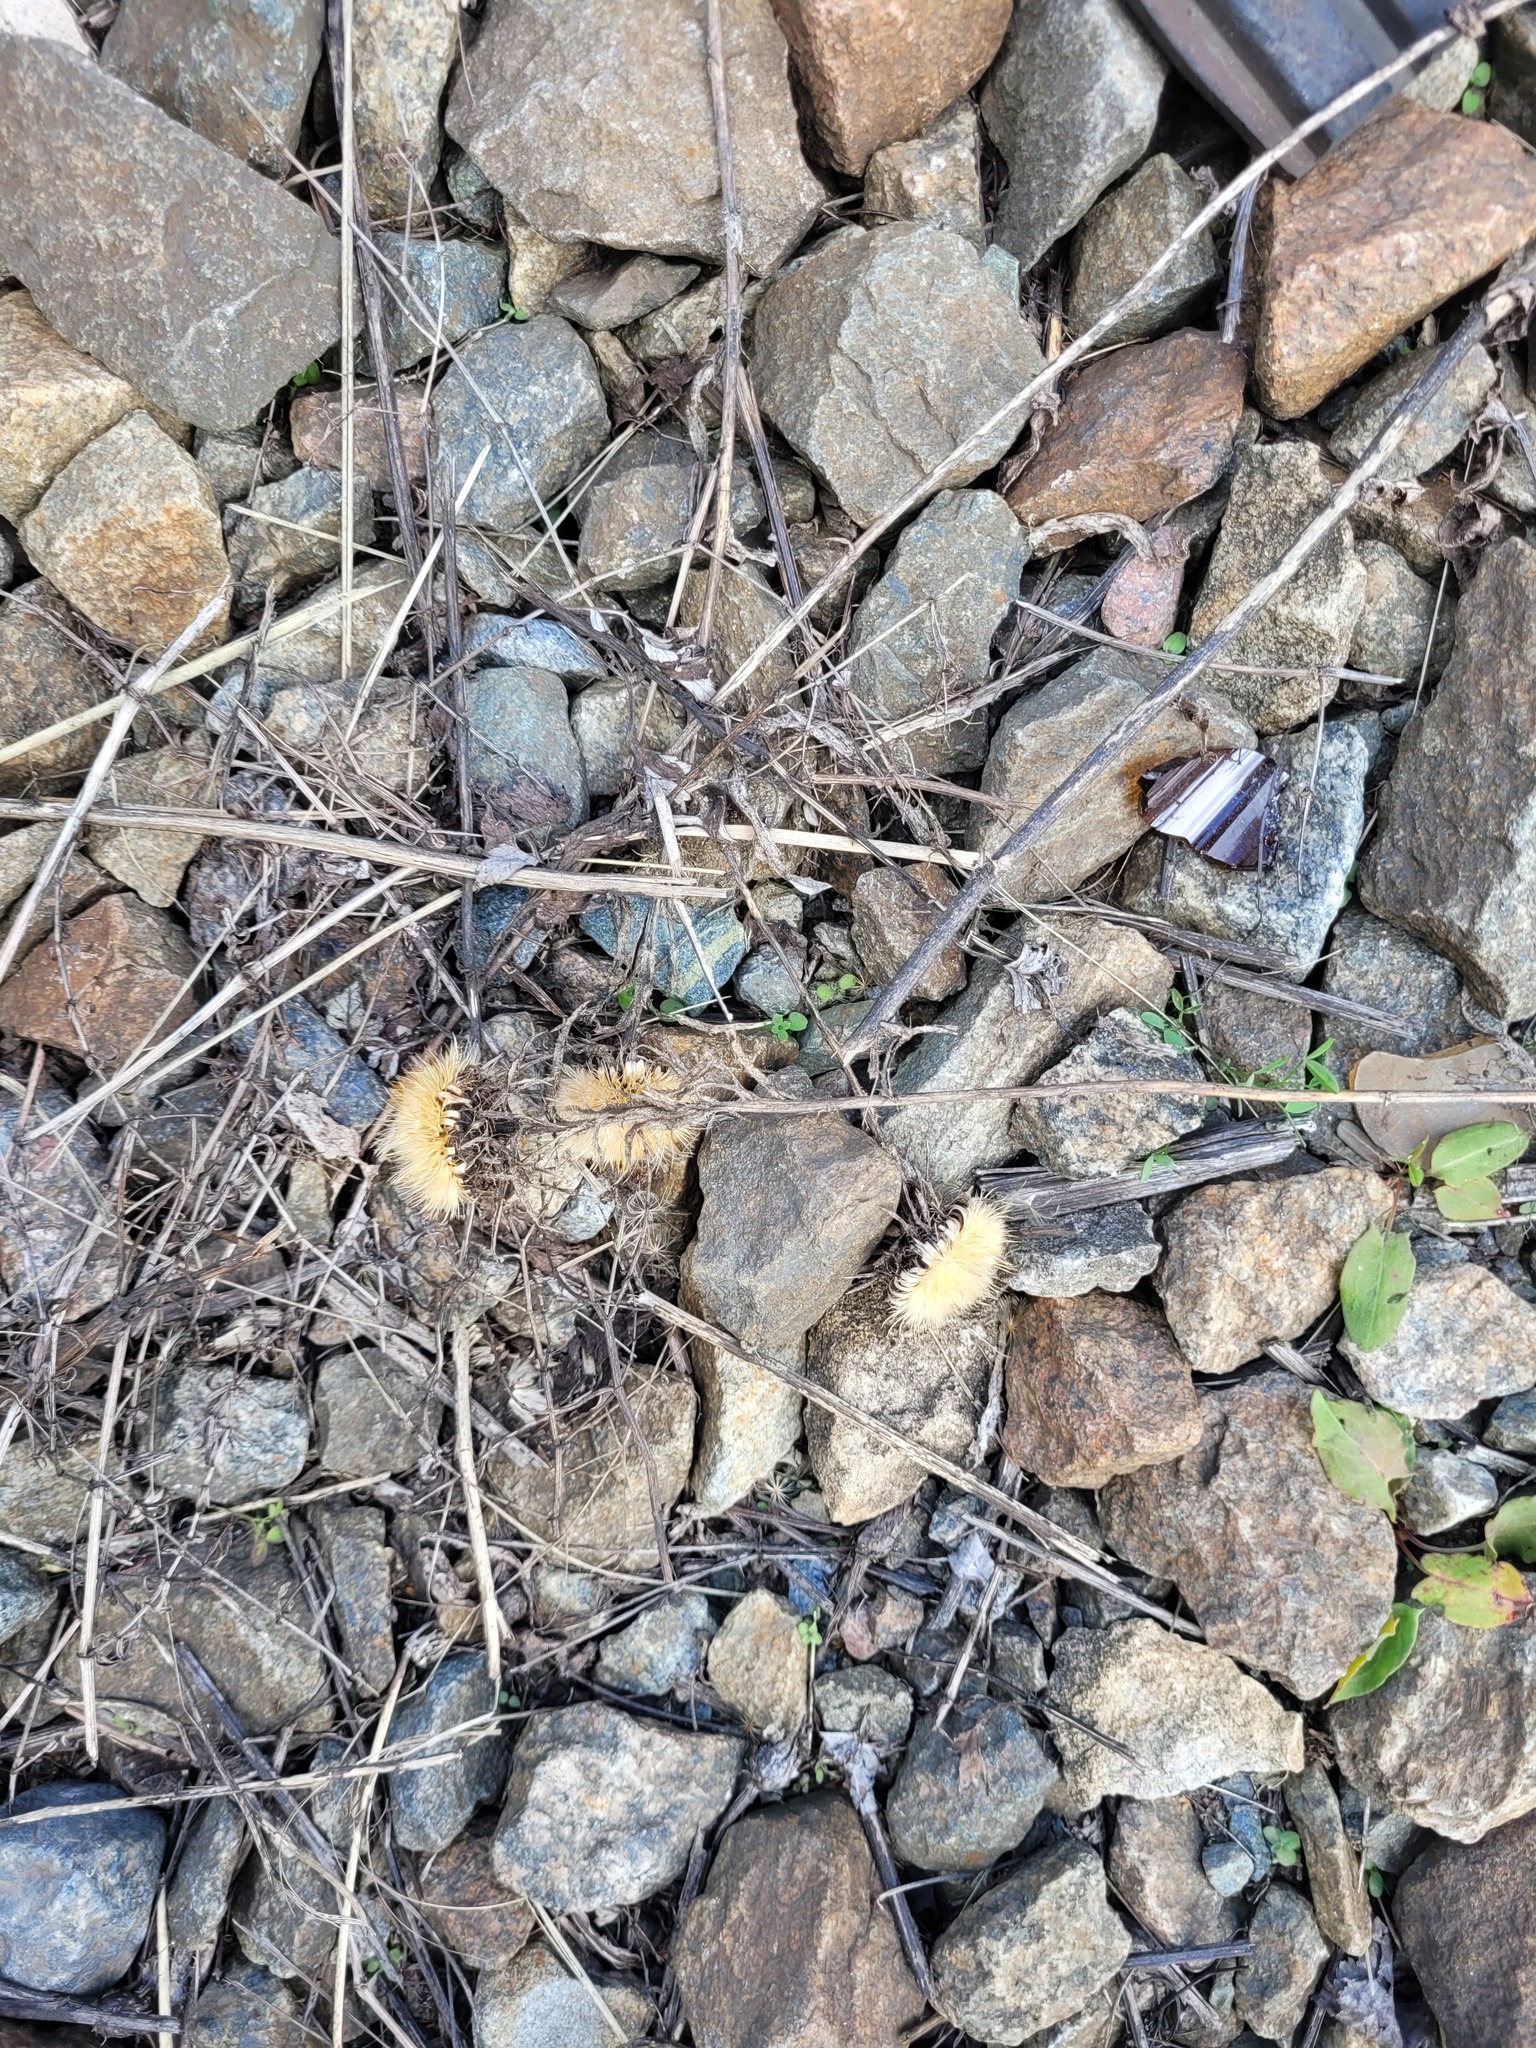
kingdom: Plantae
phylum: Tracheophyta
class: Magnoliopsida
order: Asterales
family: Asteraceae
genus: Carlina
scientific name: Carlina biebersteinii
